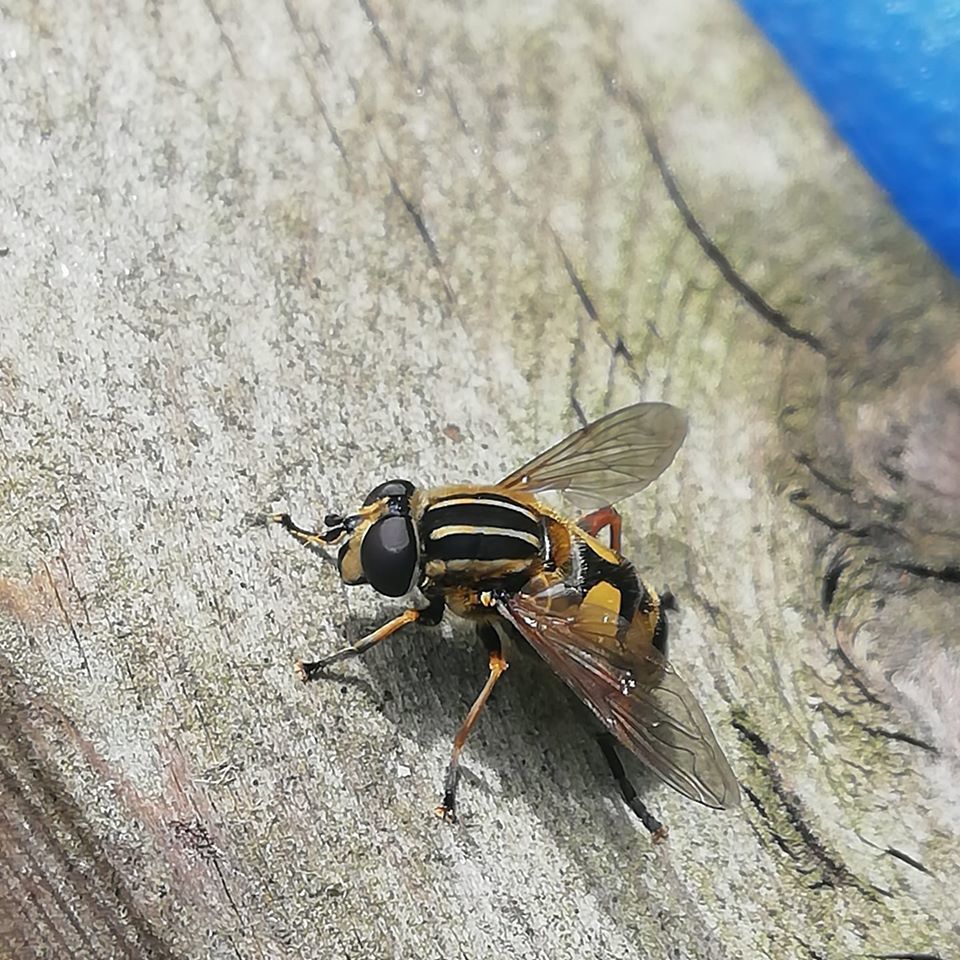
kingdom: Animalia
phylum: Arthropoda
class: Insecta
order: Diptera
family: Syrphidae
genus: Helophilus
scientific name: Helophilus pendulus
